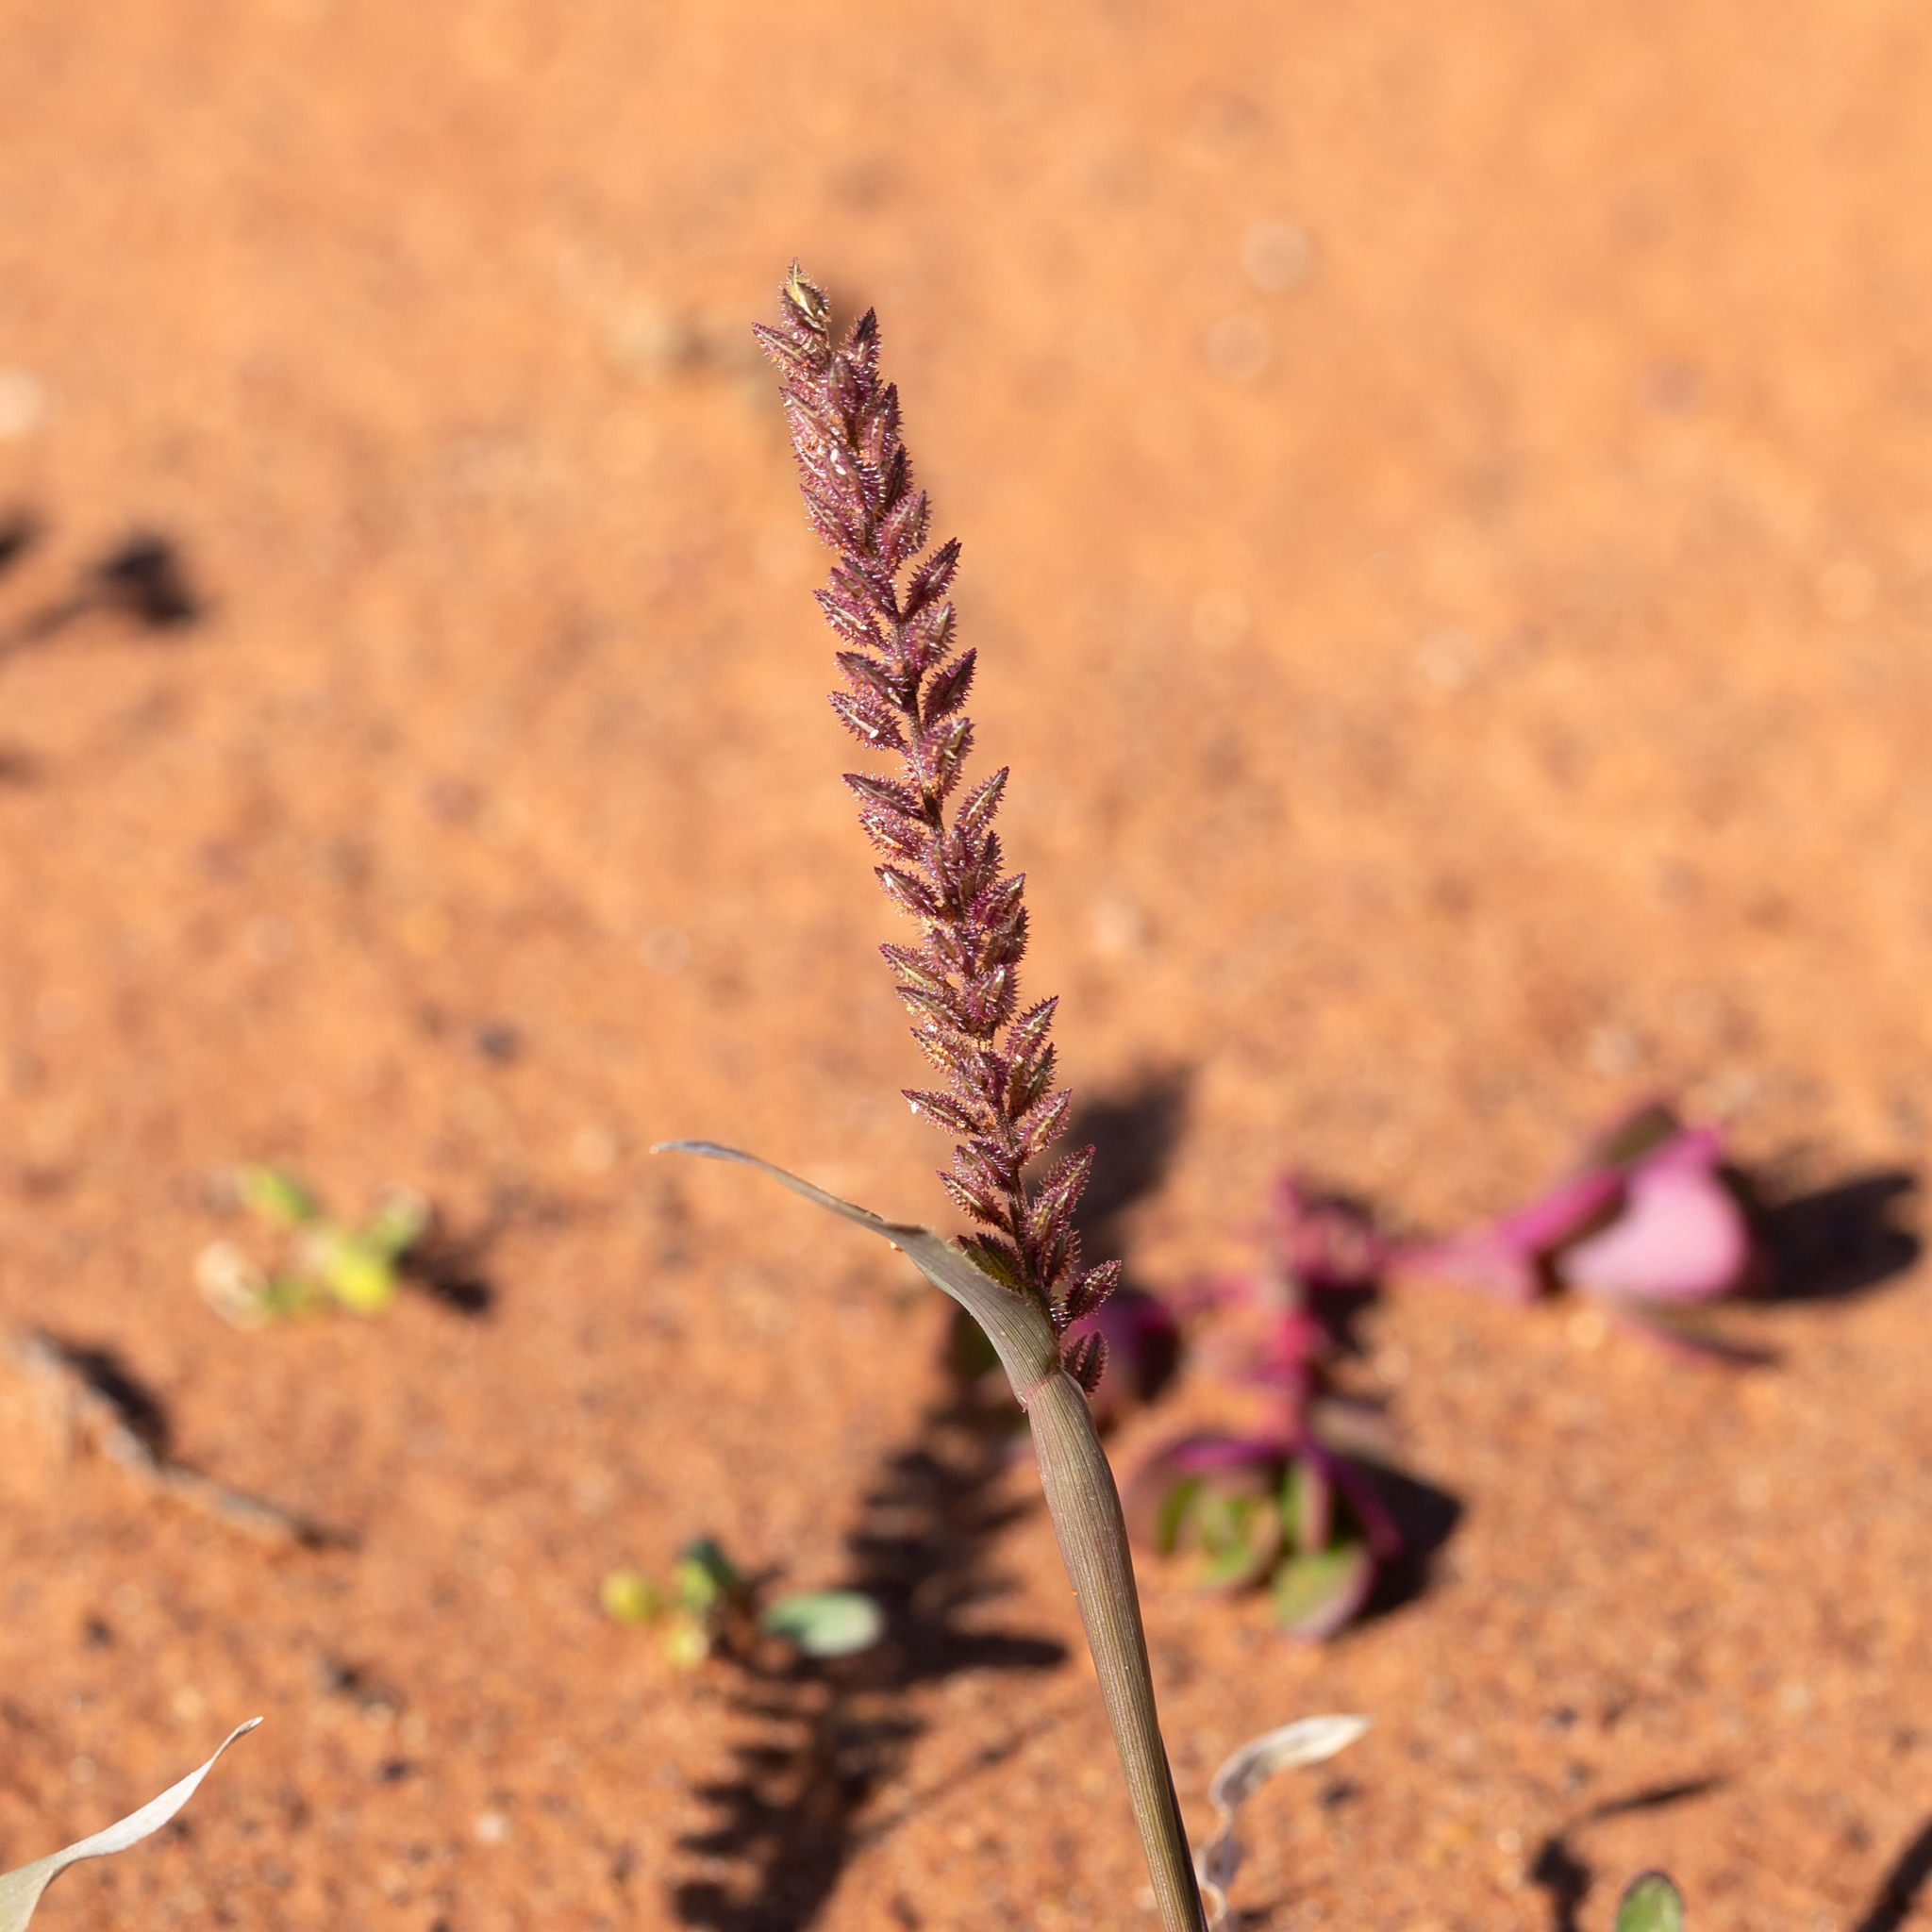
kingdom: Plantae
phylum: Tracheophyta
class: Liliopsida
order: Poales
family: Poaceae
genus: Tragus
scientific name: Tragus australianus
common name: Australian bur-grass
